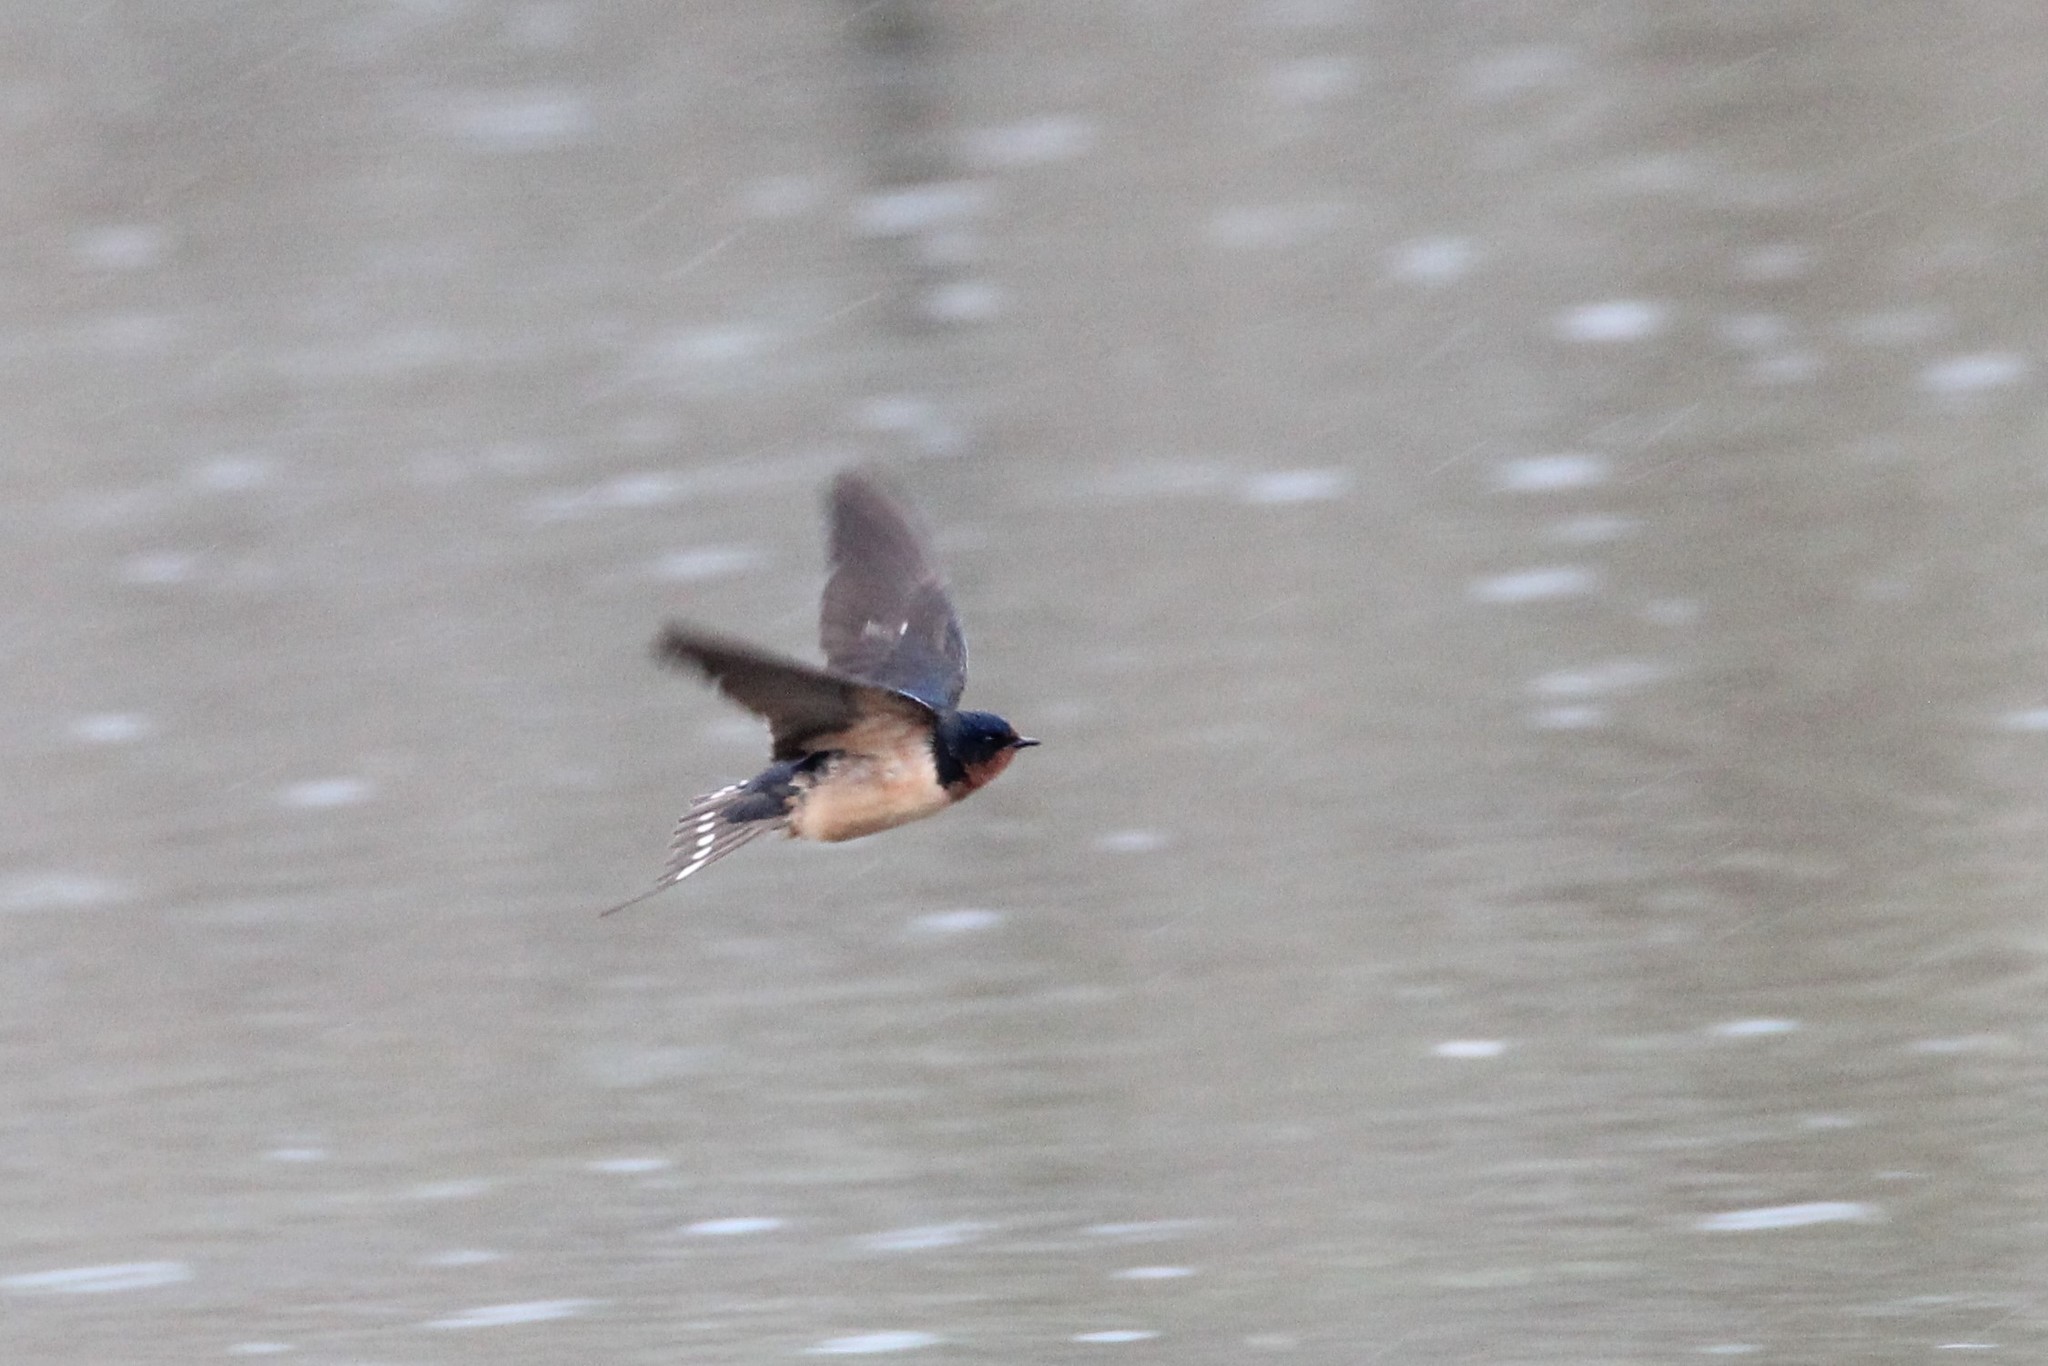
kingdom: Animalia
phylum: Chordata
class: Aves
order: Passeriformes
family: Hirundinidae
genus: Hirundo
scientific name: Hirundo rustica
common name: Barn swallow
